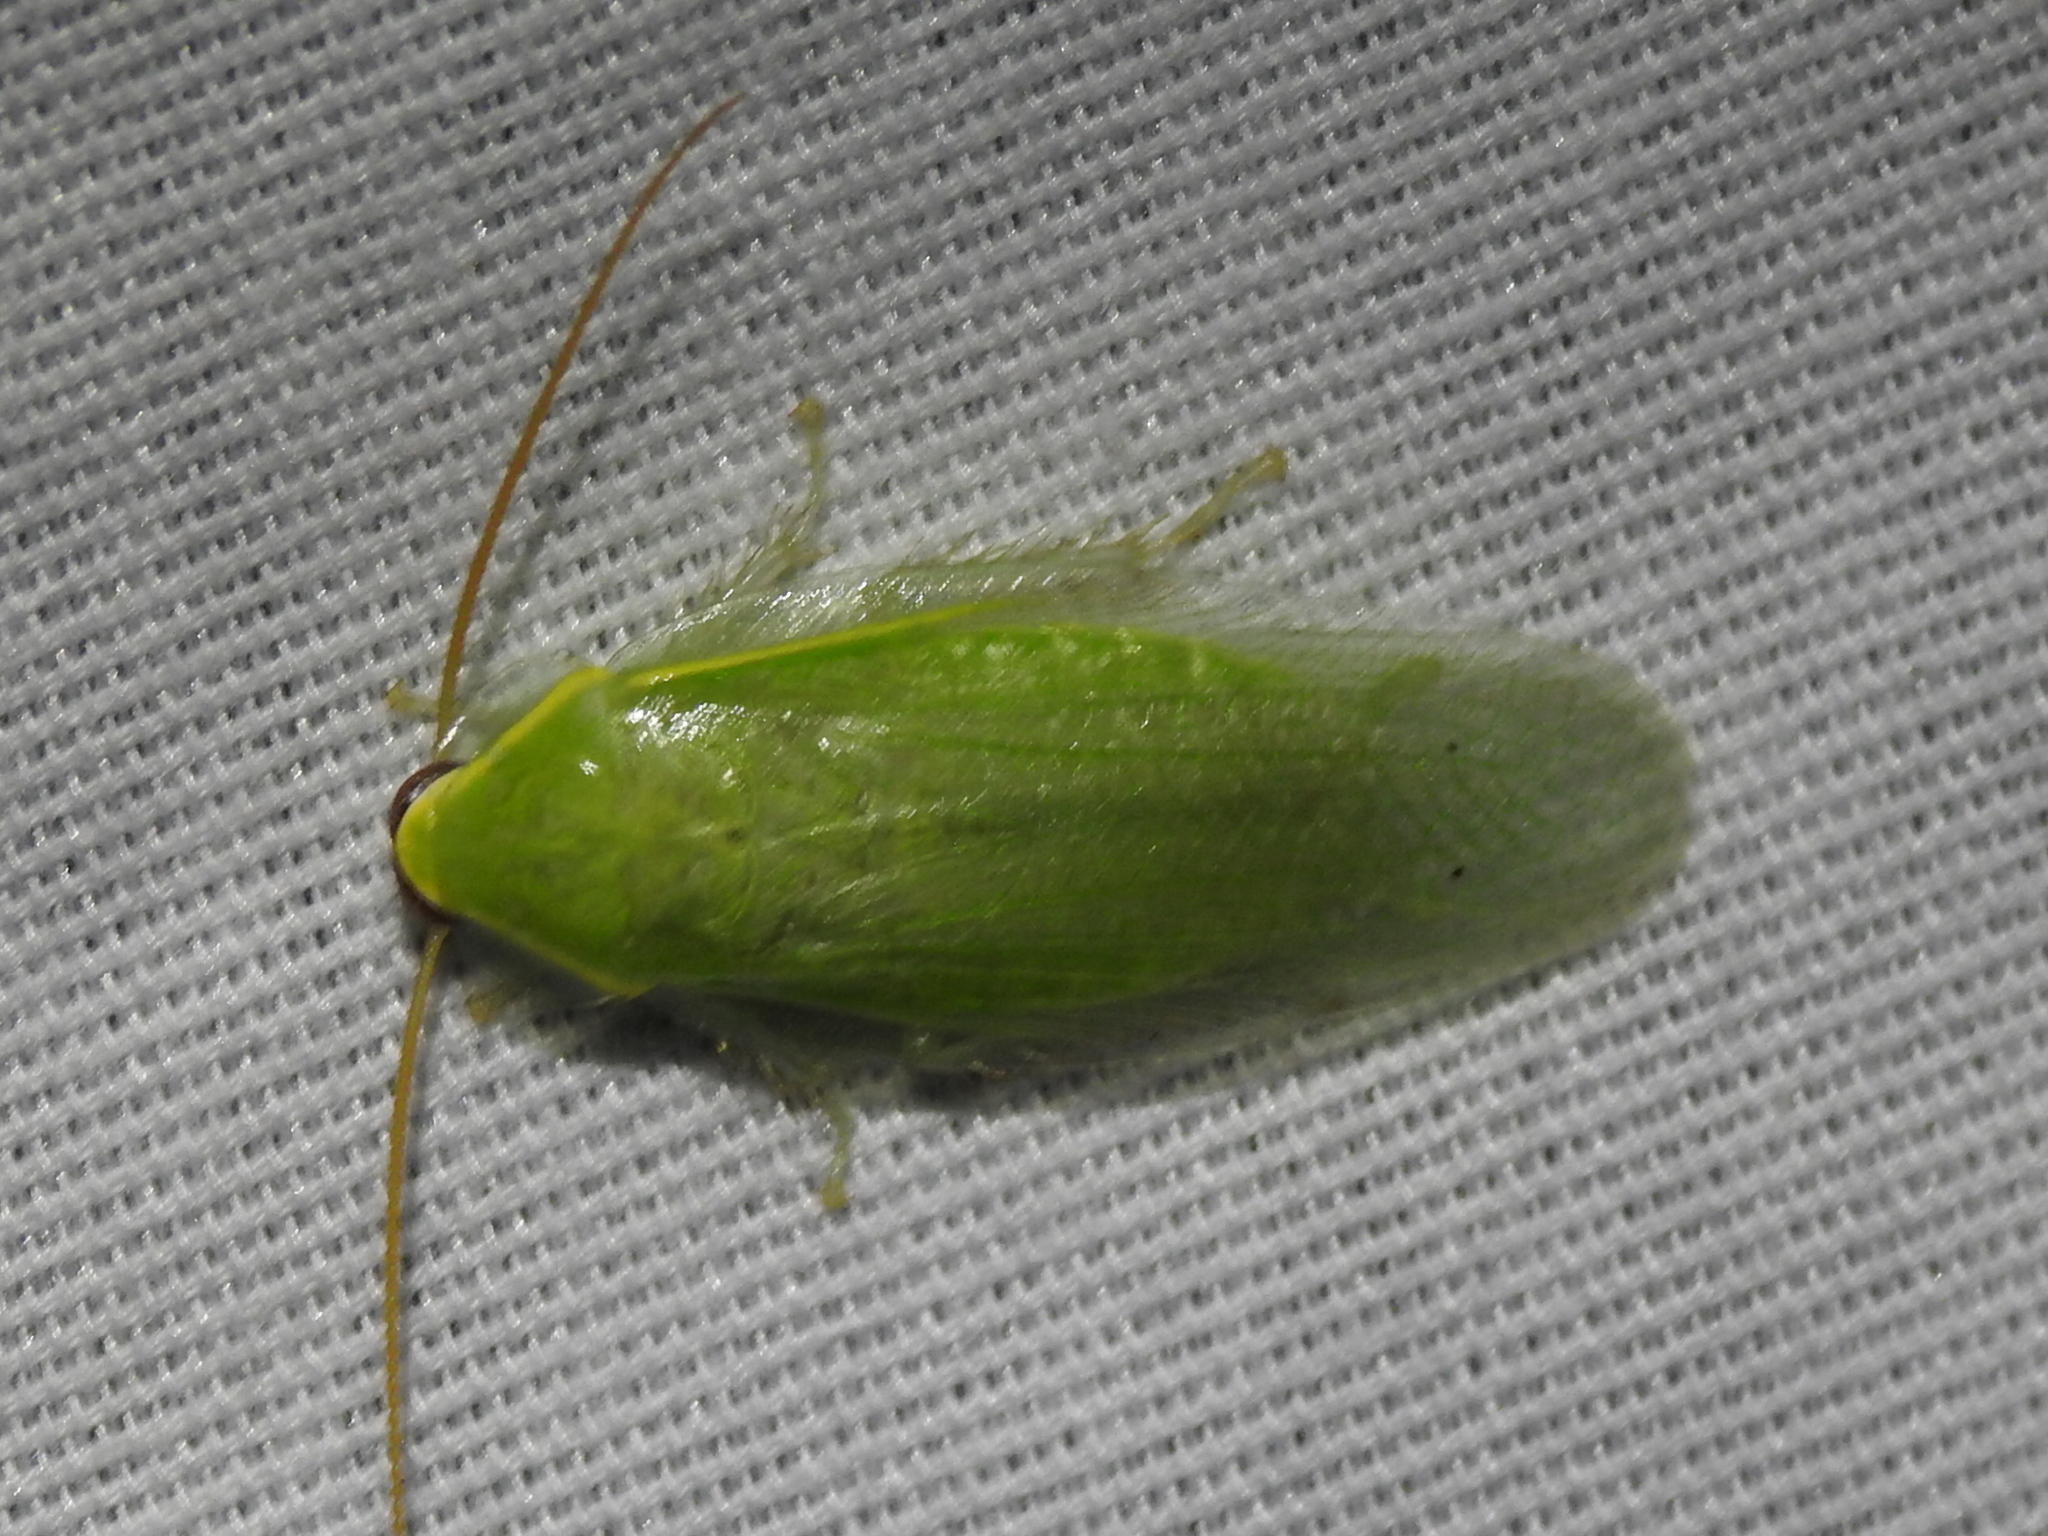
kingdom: Animalia
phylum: Arthropoda
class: Insecta
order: Blattodea
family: Blaberidae
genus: Panchlora
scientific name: Panchlora nivea
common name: Cuban cockroach
